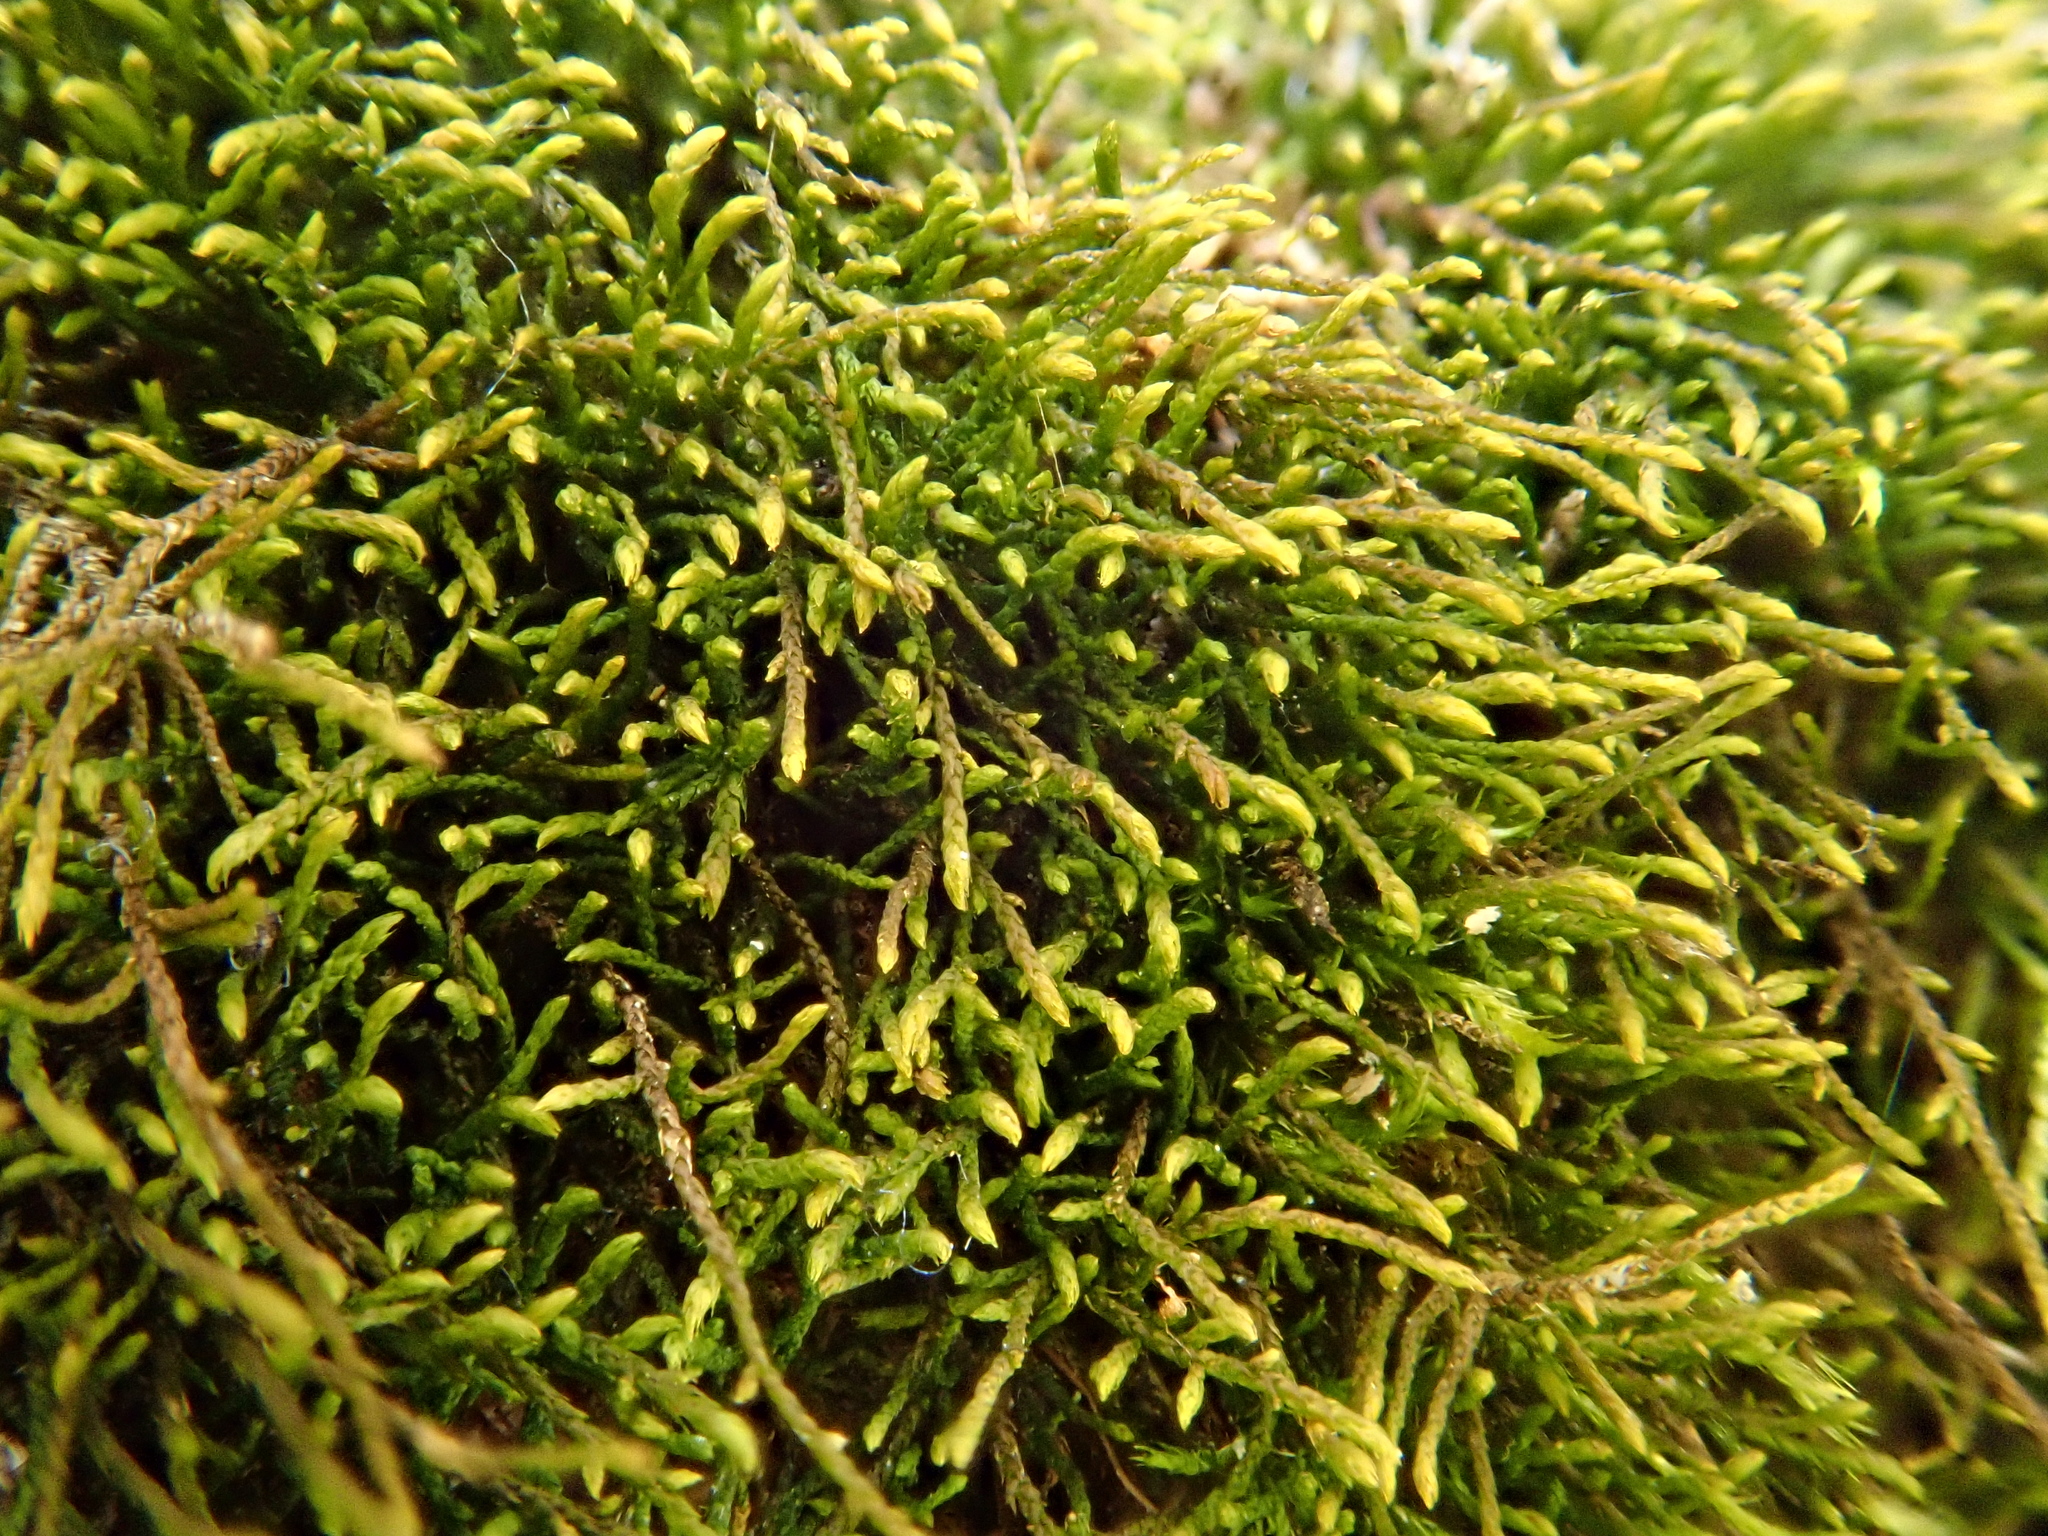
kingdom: Plantae
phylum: Bryophyta
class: Bryopsida
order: Hypnales
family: Pseudoleskeellaceae
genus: Pseudoleskeella
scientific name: Pseudoleskeella catenulata
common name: Chained leskea
